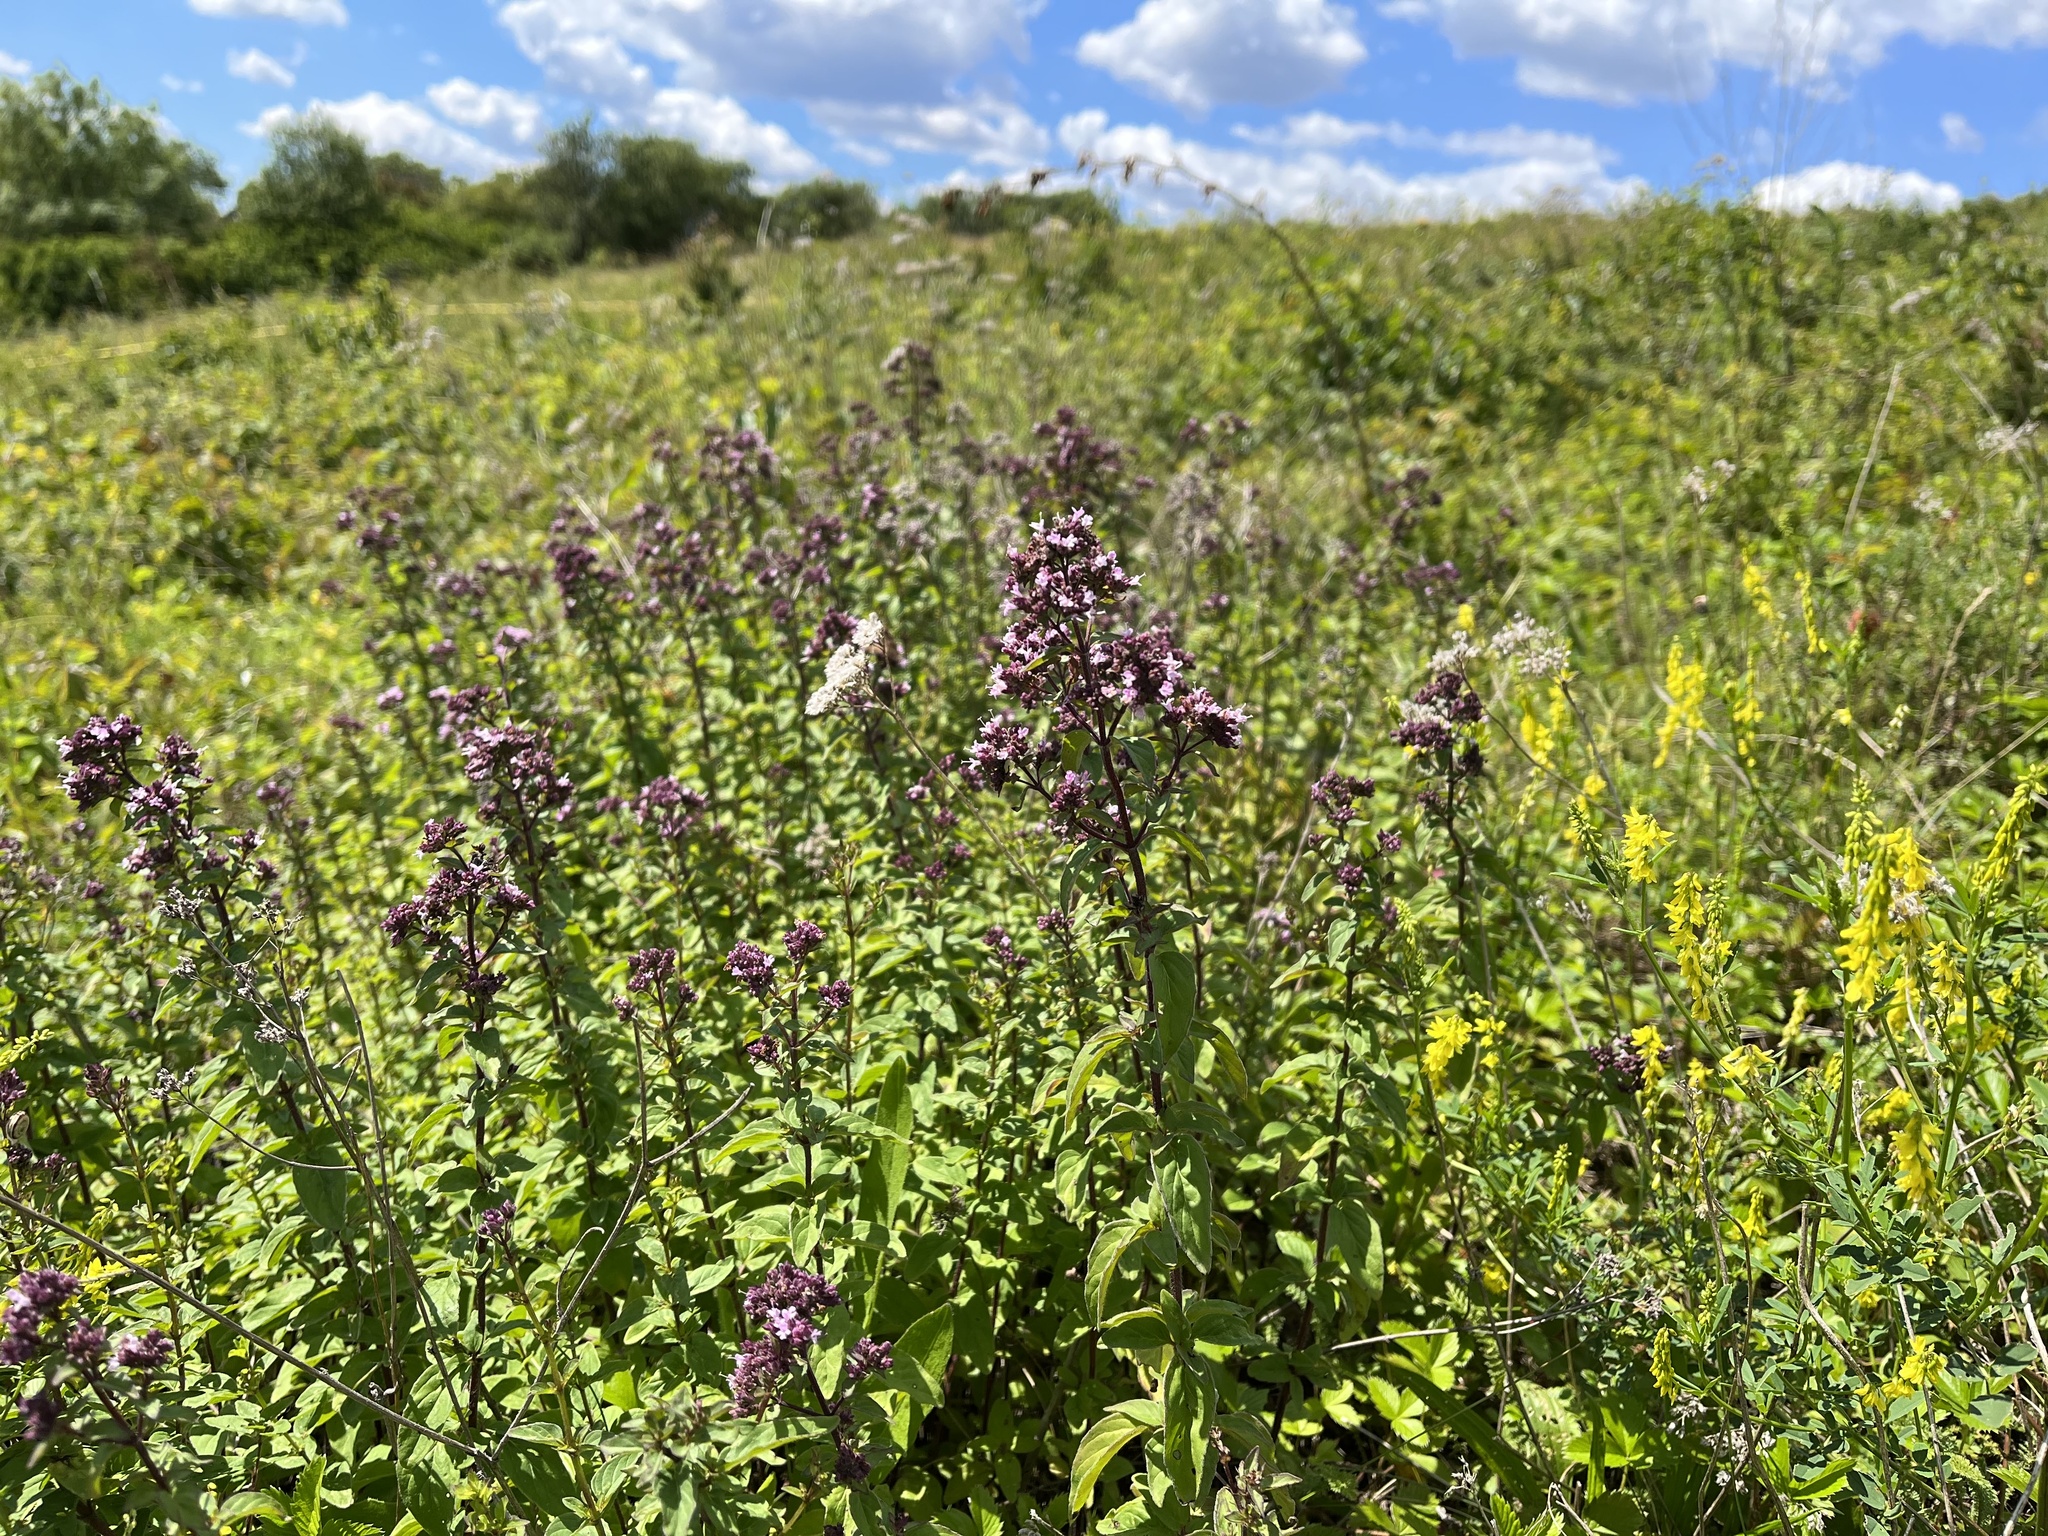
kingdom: Plantae
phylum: Tracheophyta
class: Magnoliopsida
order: Lamiales
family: Lamiaceae
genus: Origanum
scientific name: Origanum vulgare
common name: Wild marjoram
